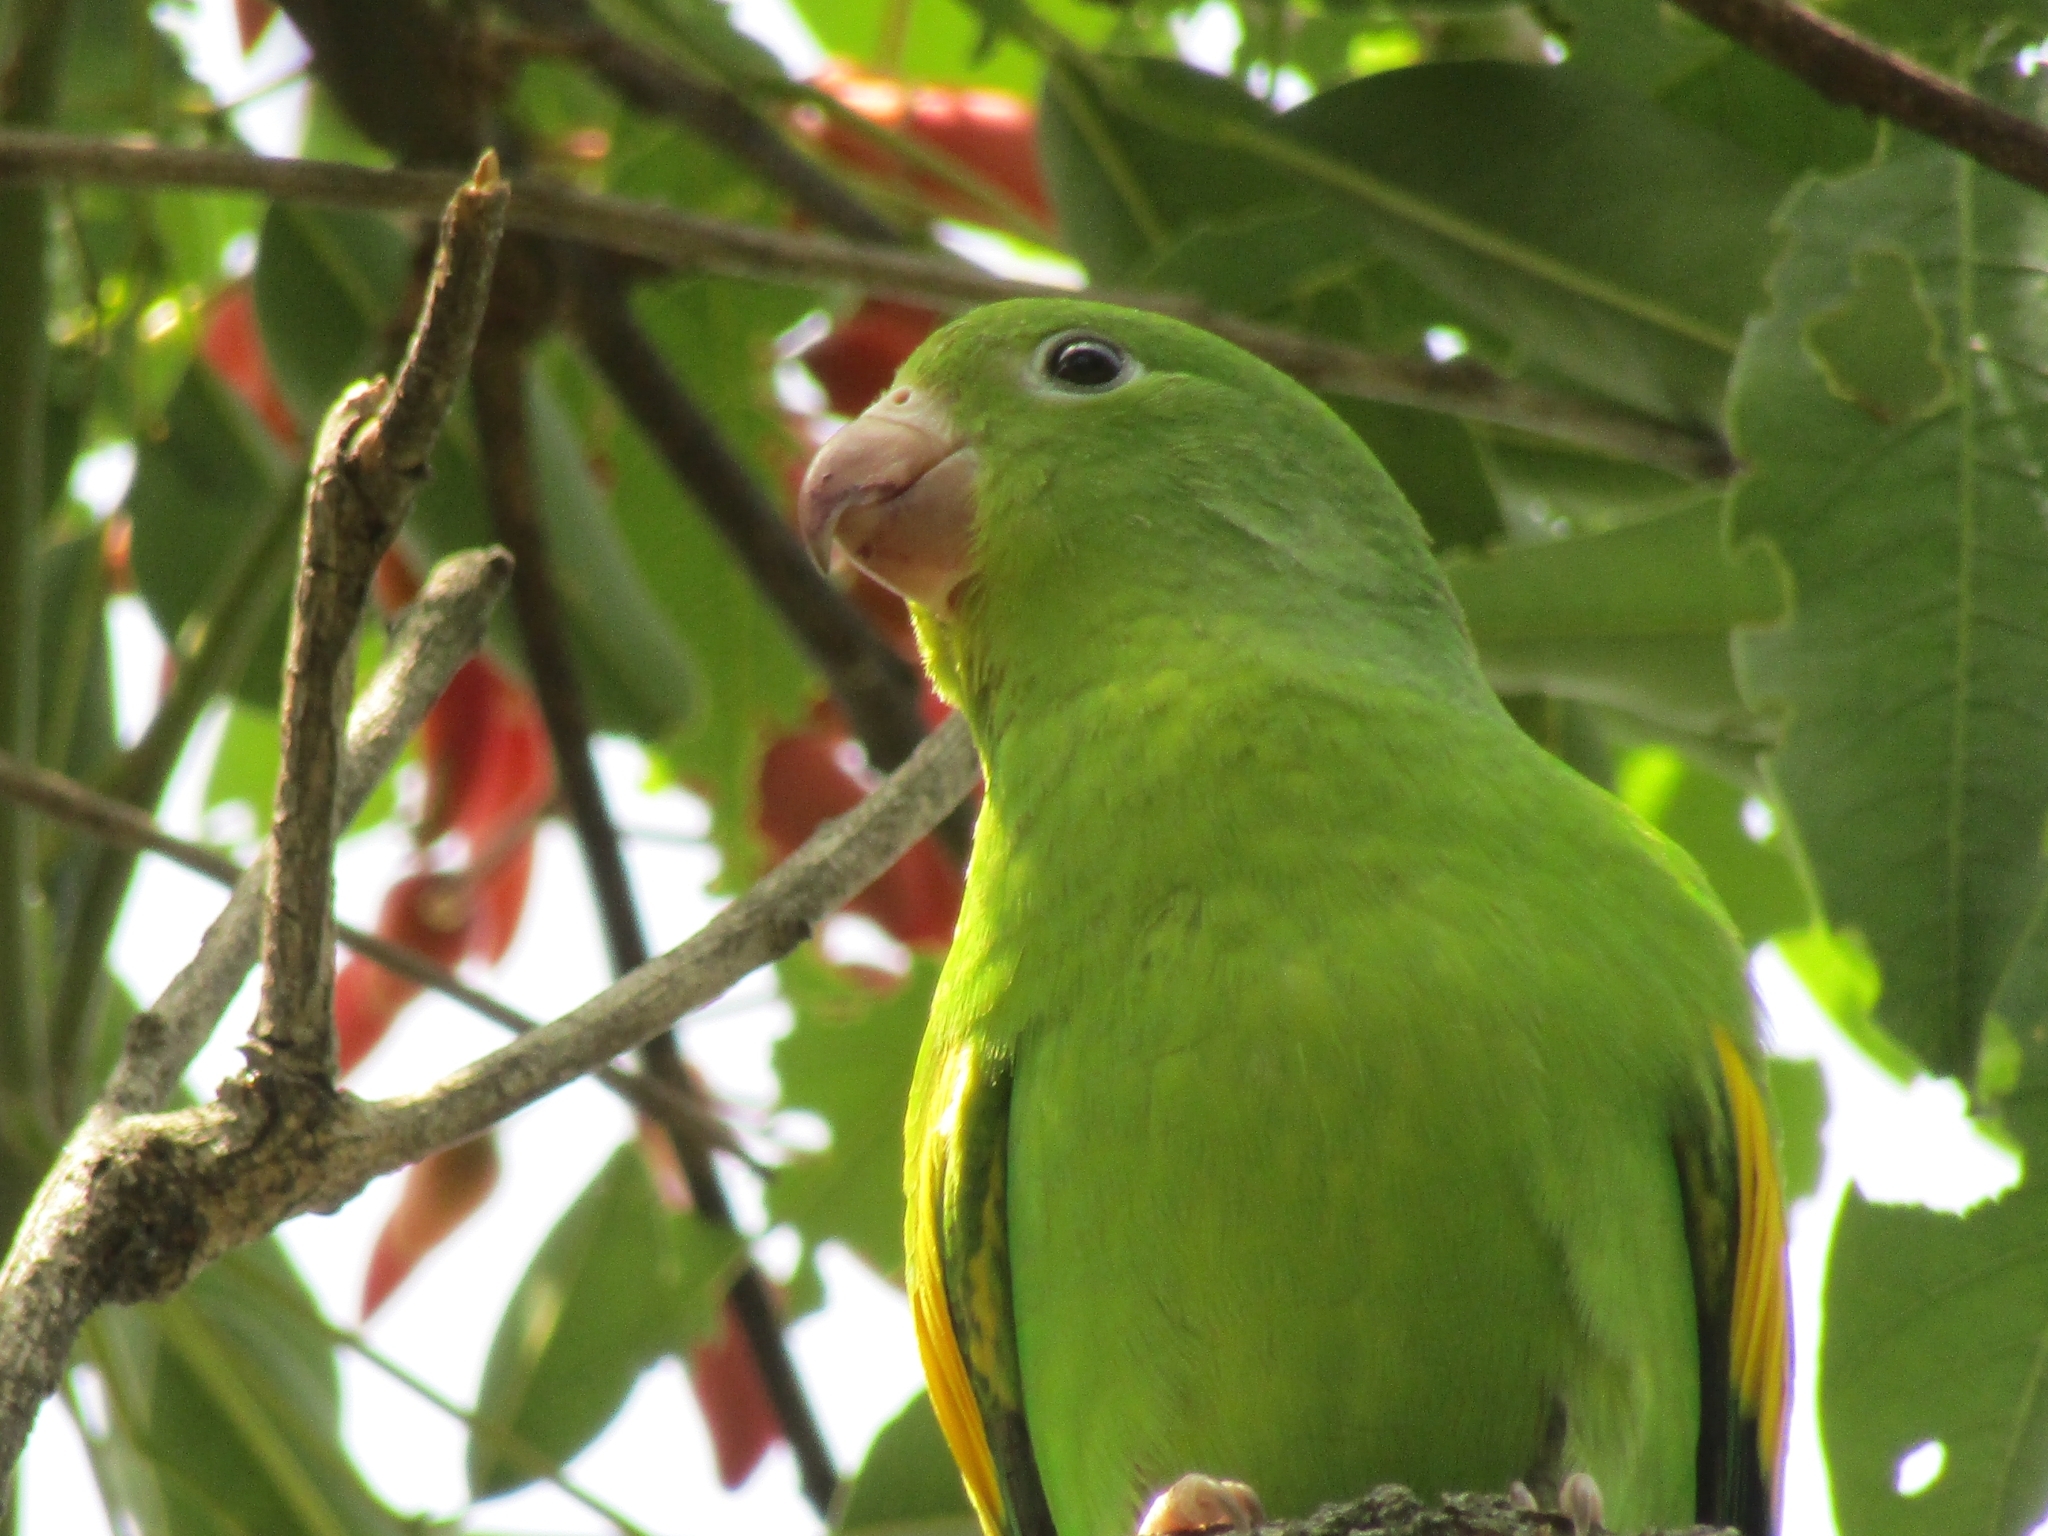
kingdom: Animalia
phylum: Chordata
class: Aves
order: Psittaciformes
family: Psittacidae
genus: Brotogeris
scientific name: Brotogeris chiriri
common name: Yellow-chevroned parakeet
